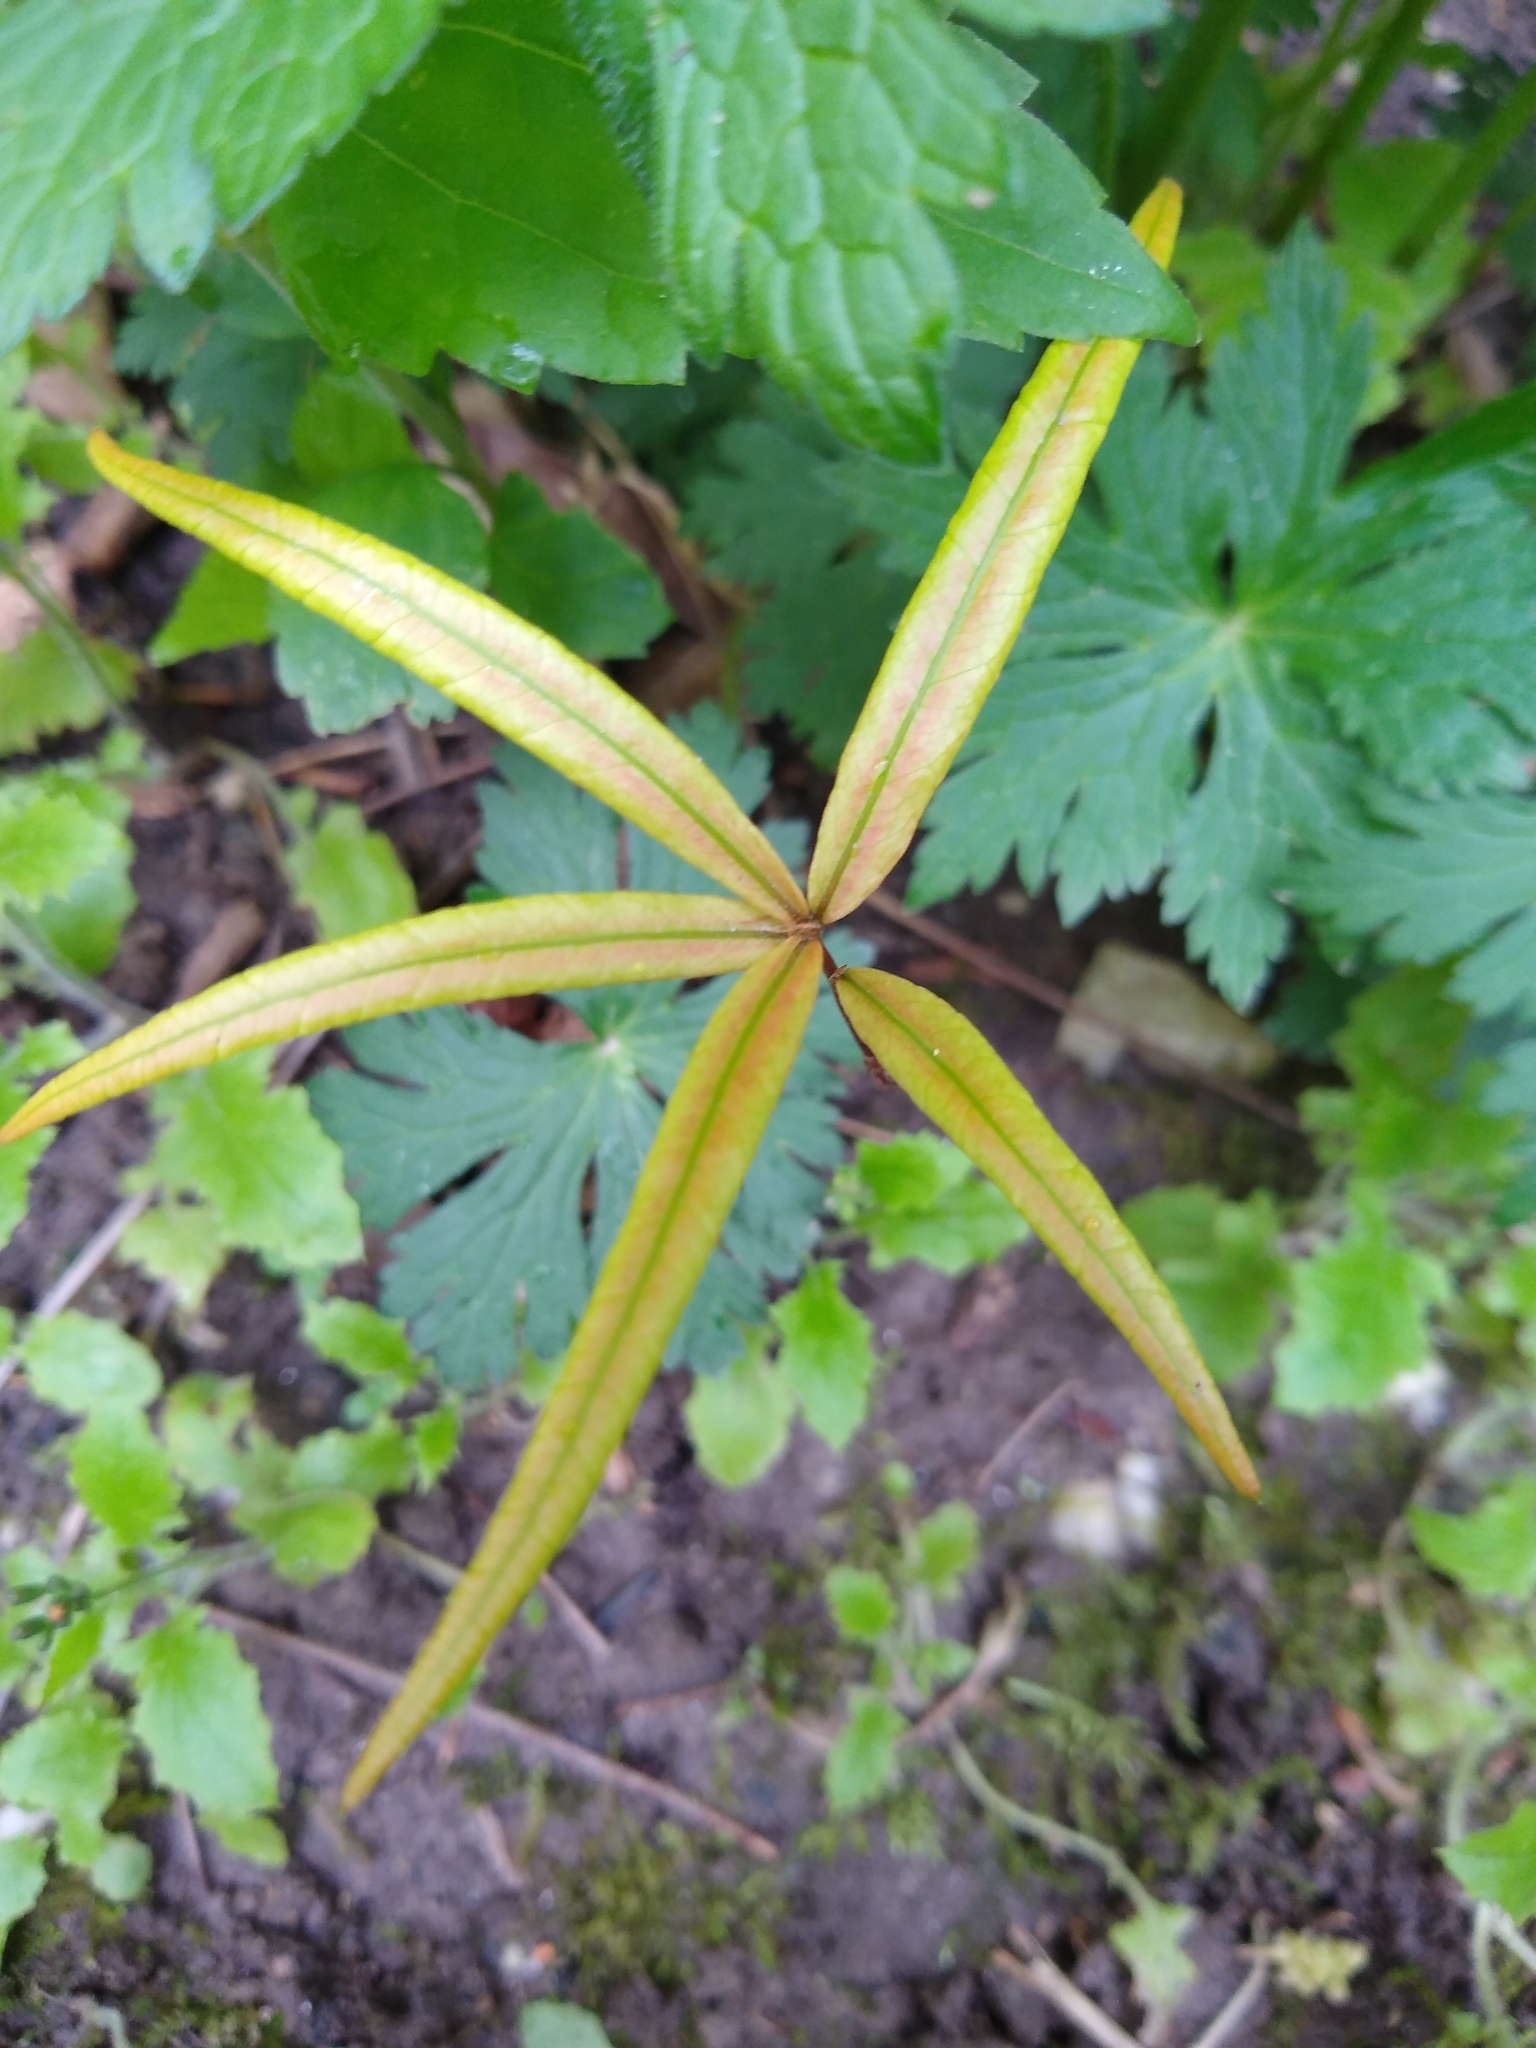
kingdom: Plantae
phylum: Tracheophyta
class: Magnoliopsida
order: Fagales
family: Fagaceae
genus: Quercus
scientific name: Quercus phellos
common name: Willow oak
